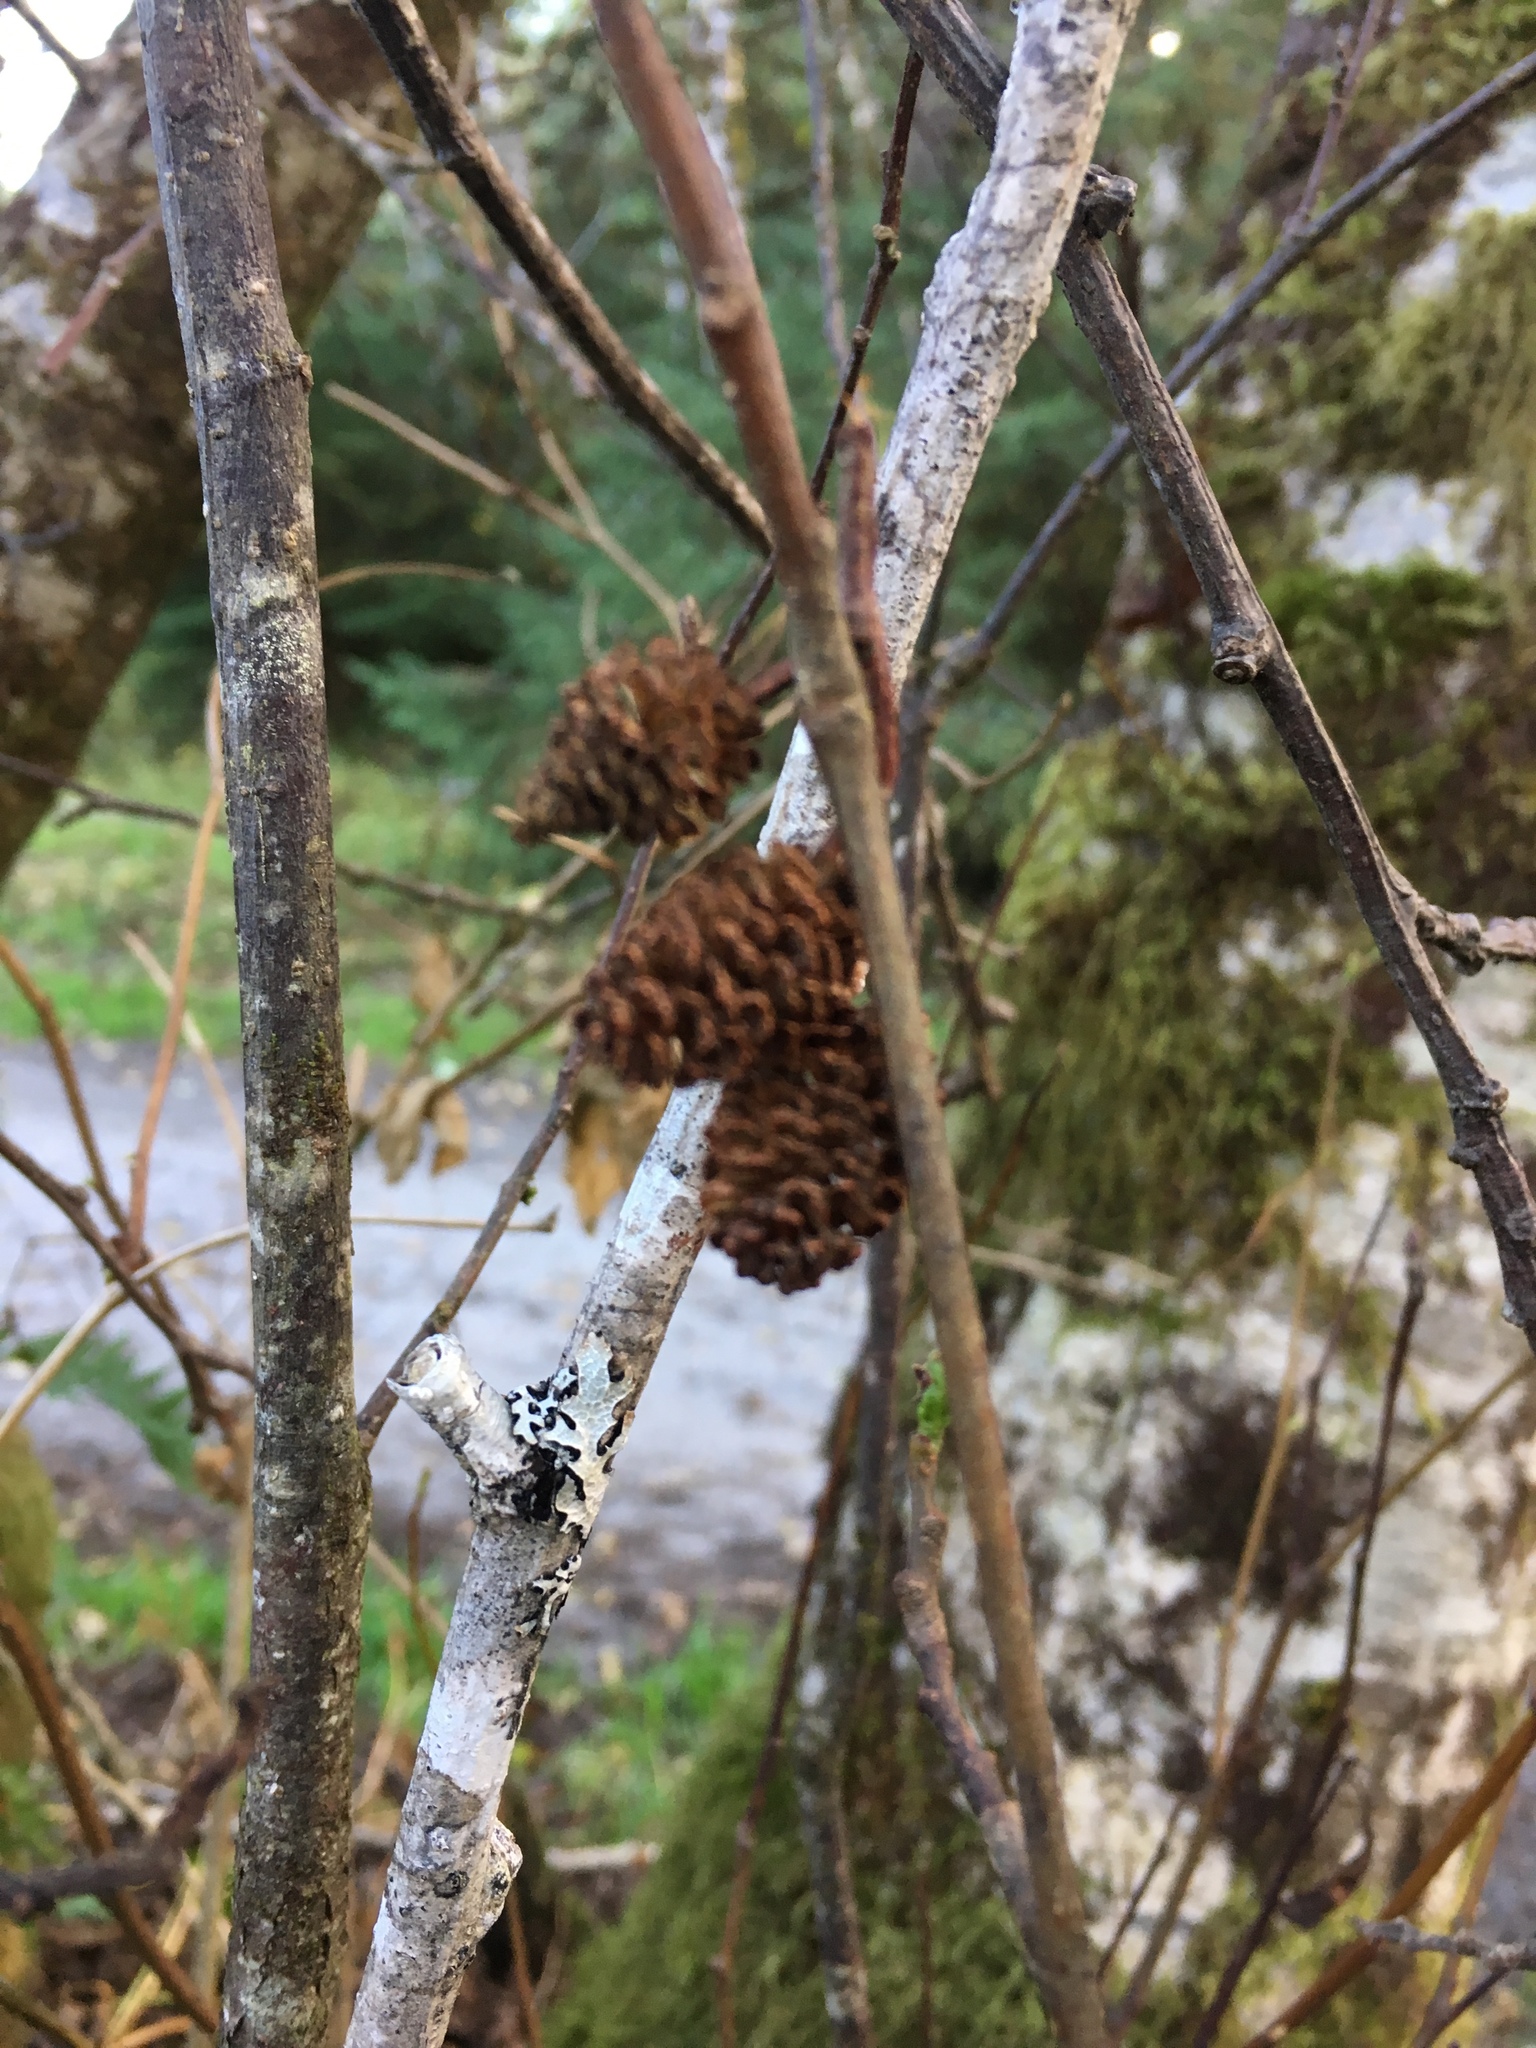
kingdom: Plantae
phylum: Tracheophyta
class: Magnoliopsida
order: Fagales
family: Betulaceae
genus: Alnus
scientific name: Alnus rubra
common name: Red alder
